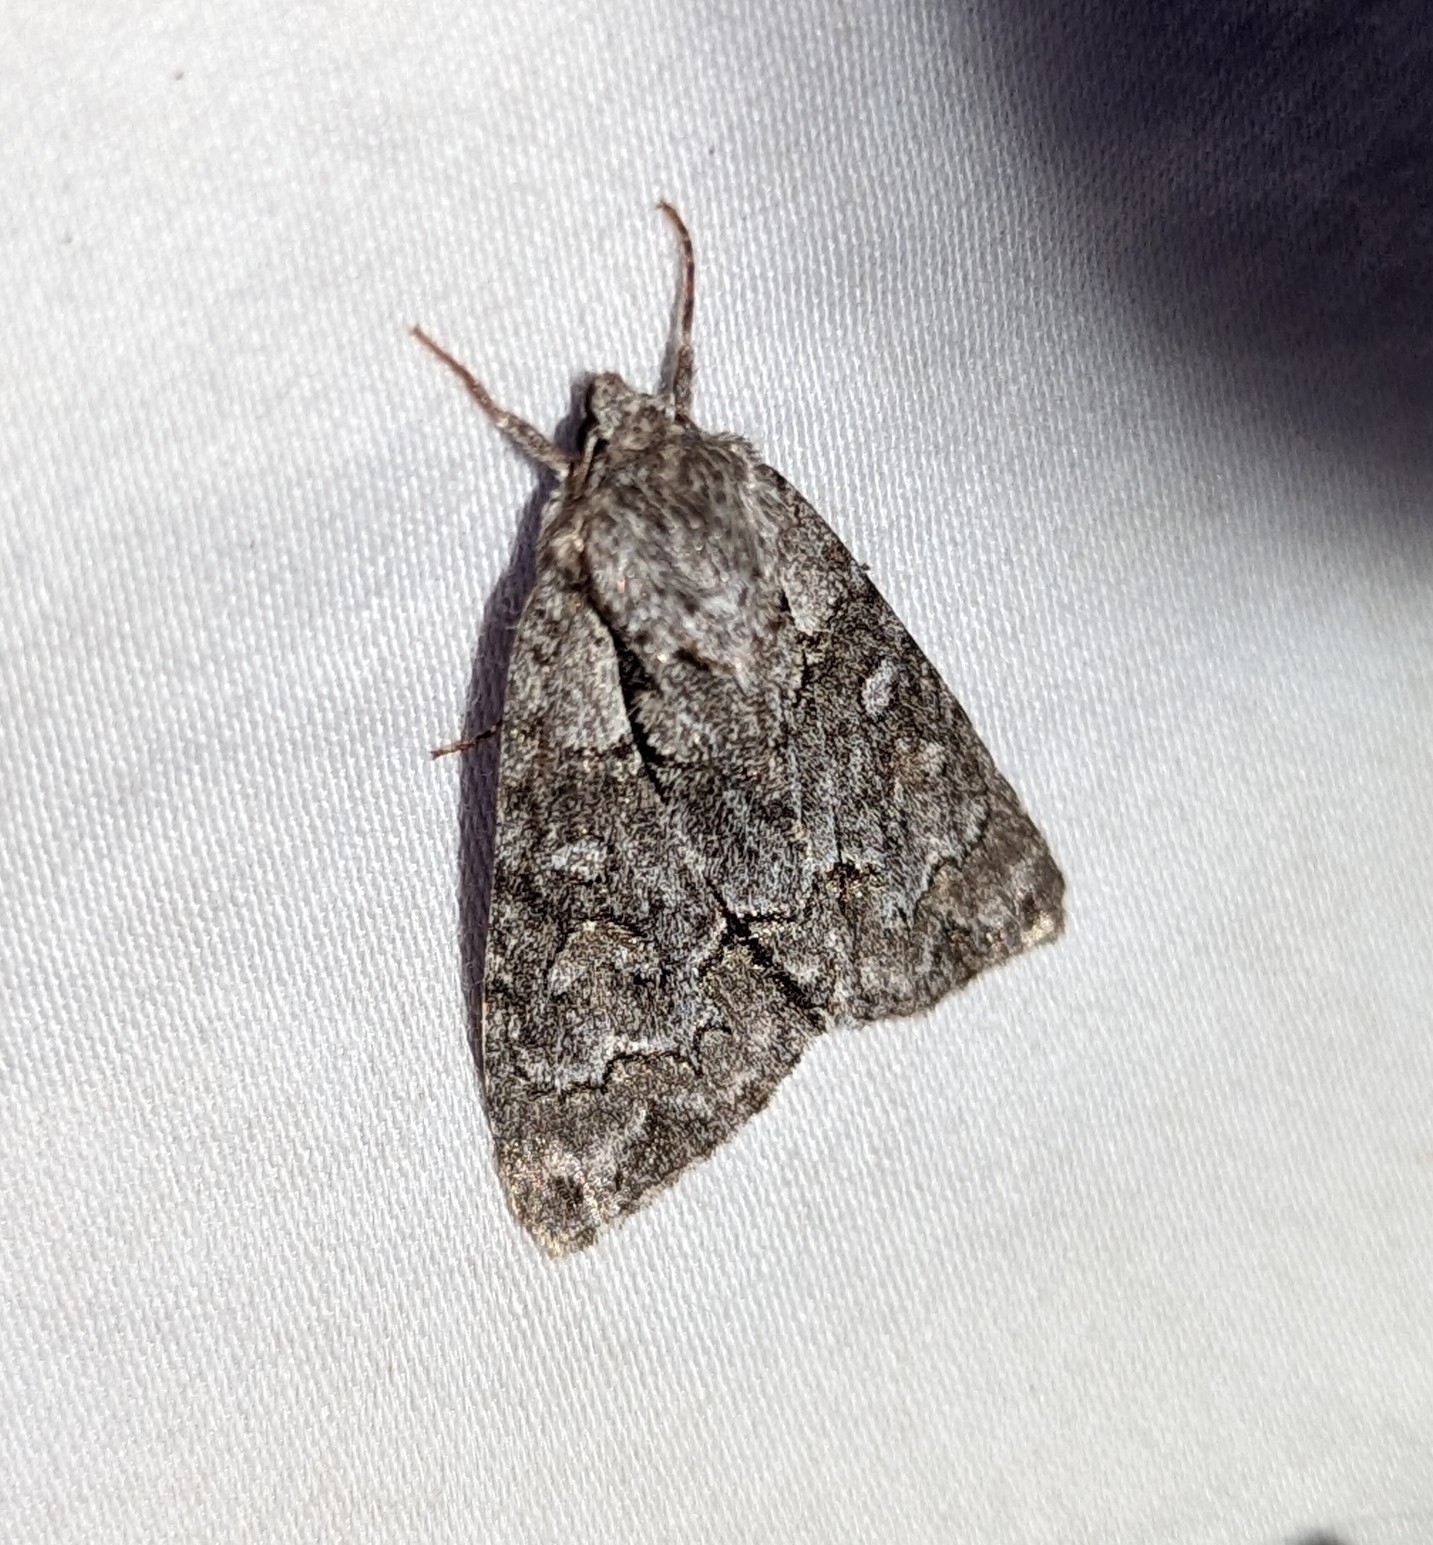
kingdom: Animalia
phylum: Arthropoda
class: Insecta
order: Lepidoptera
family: Noctuidae
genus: Acronicta
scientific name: Acronicta grisea
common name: Gray dagger
